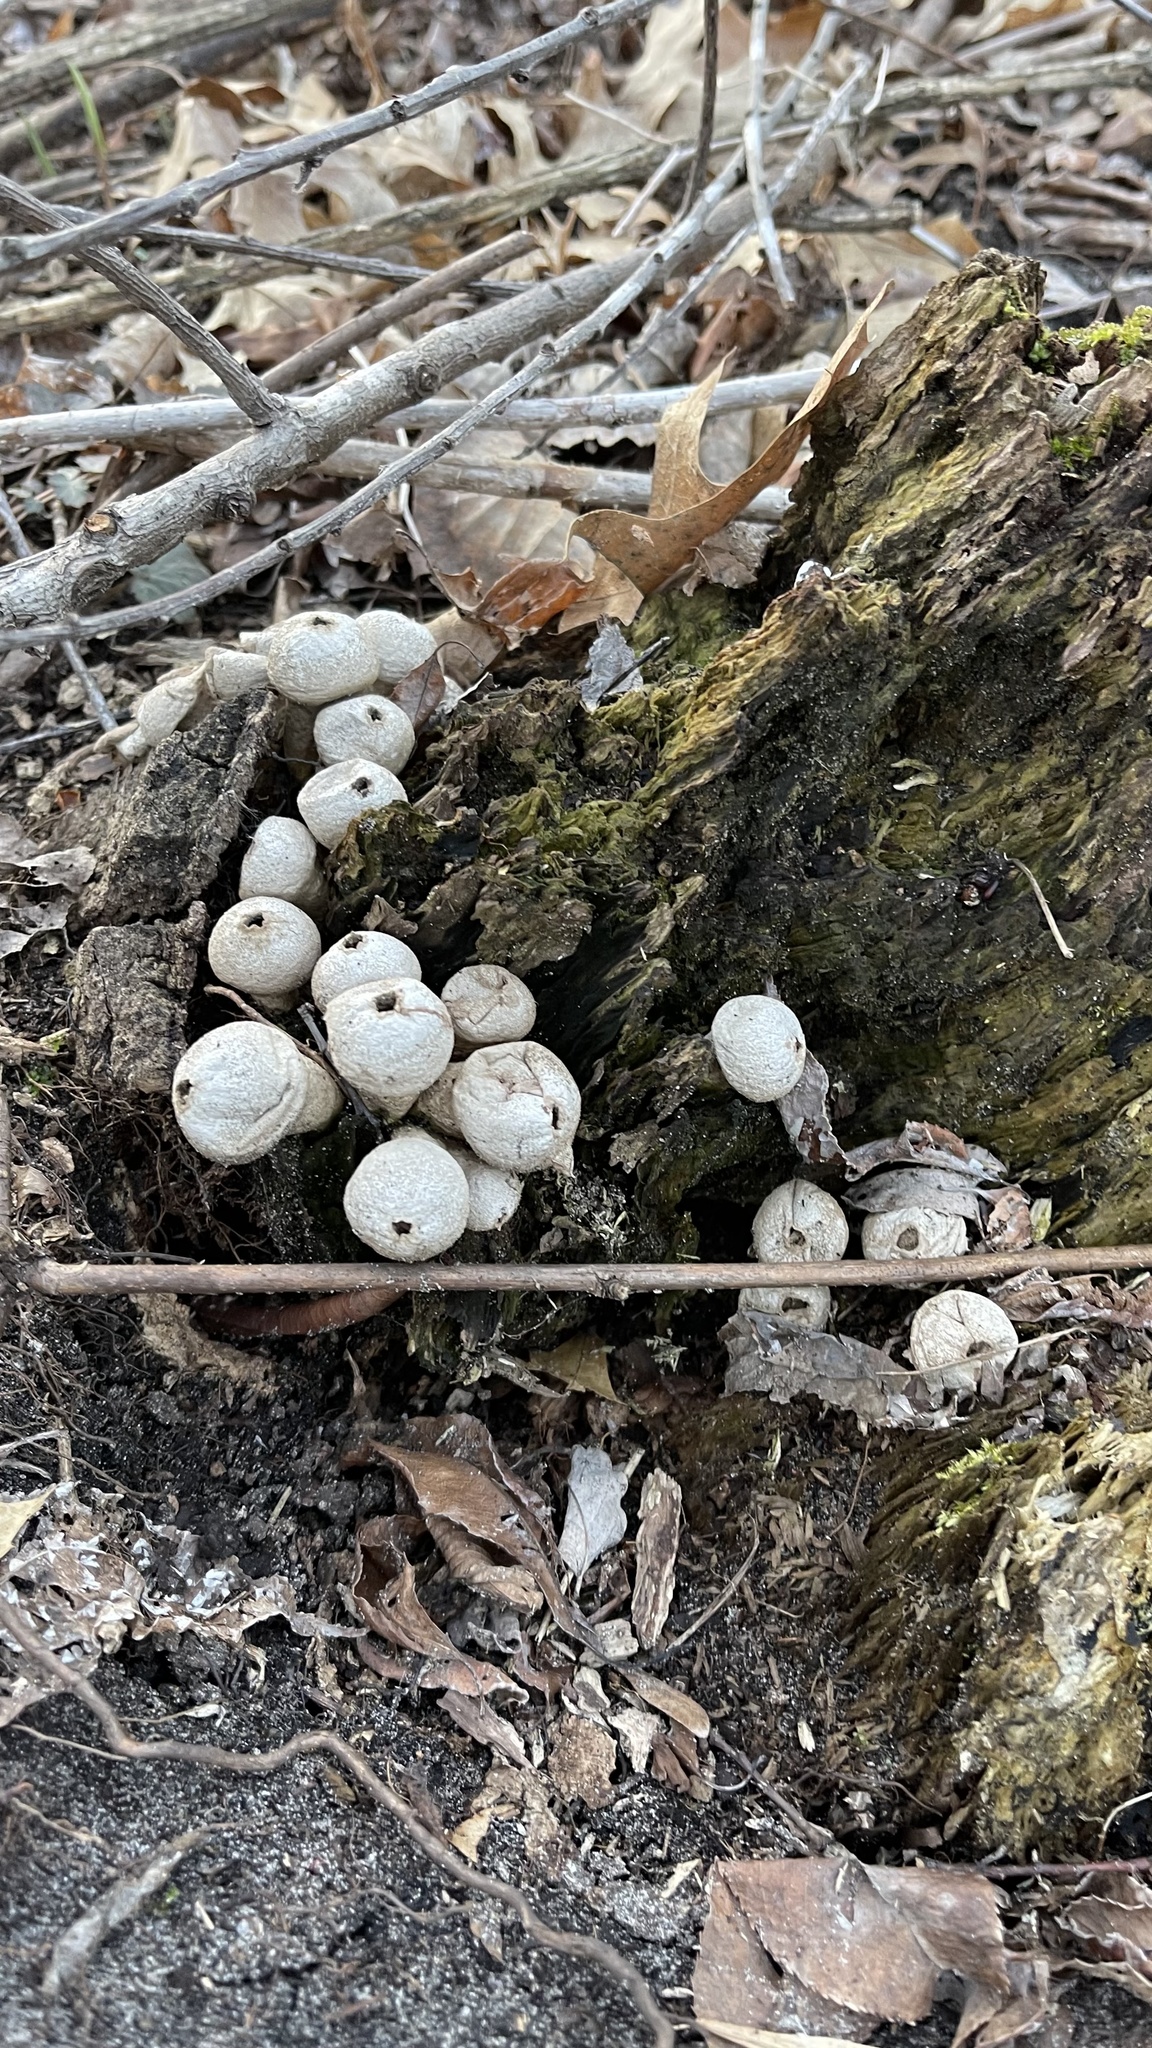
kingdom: Fungi
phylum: Basidiomycota
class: Agaricomycetes
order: Agaricales
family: Lycoperdaceae
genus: Apioperdon
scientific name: Apioperdon pyriforme
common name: Pear-shaped puffball
